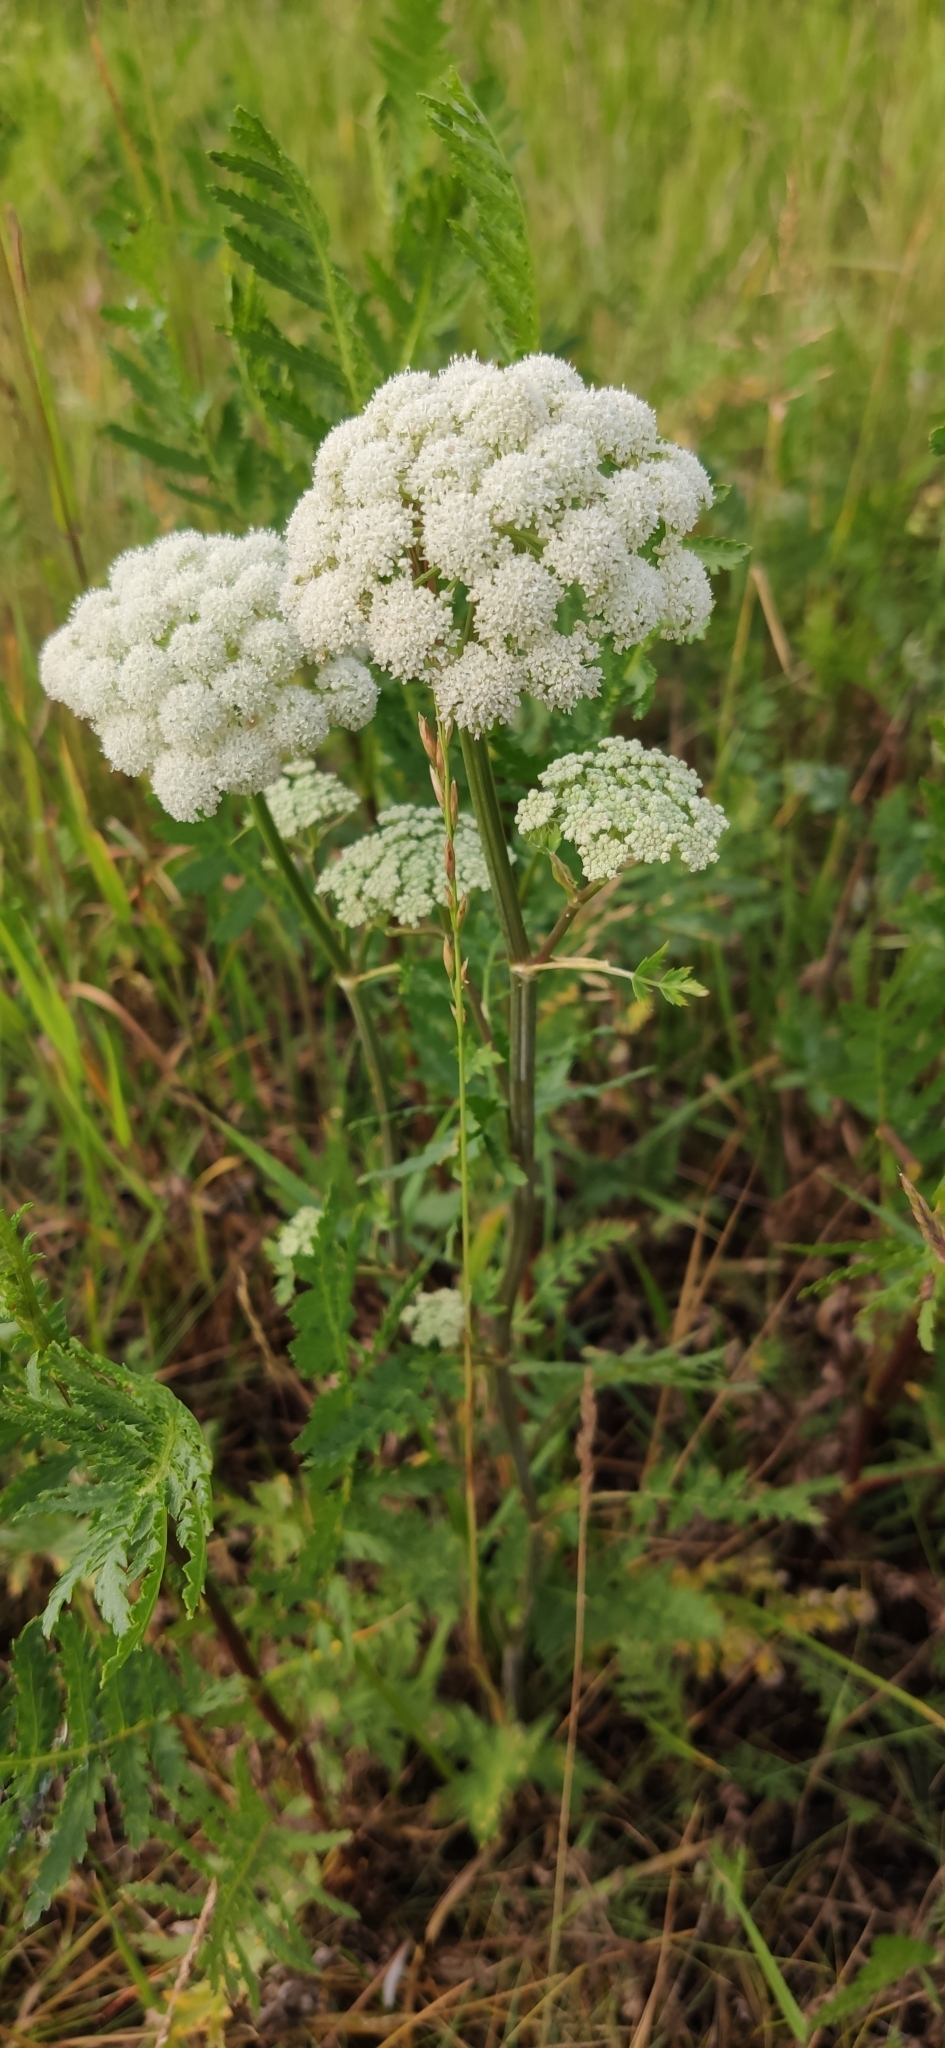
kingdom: Plantae
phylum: Tracheophyta
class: Magnoliopsida
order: Apiales
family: Apiaceae
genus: Seseli
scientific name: Seseli libanotis
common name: Mooncarrot
